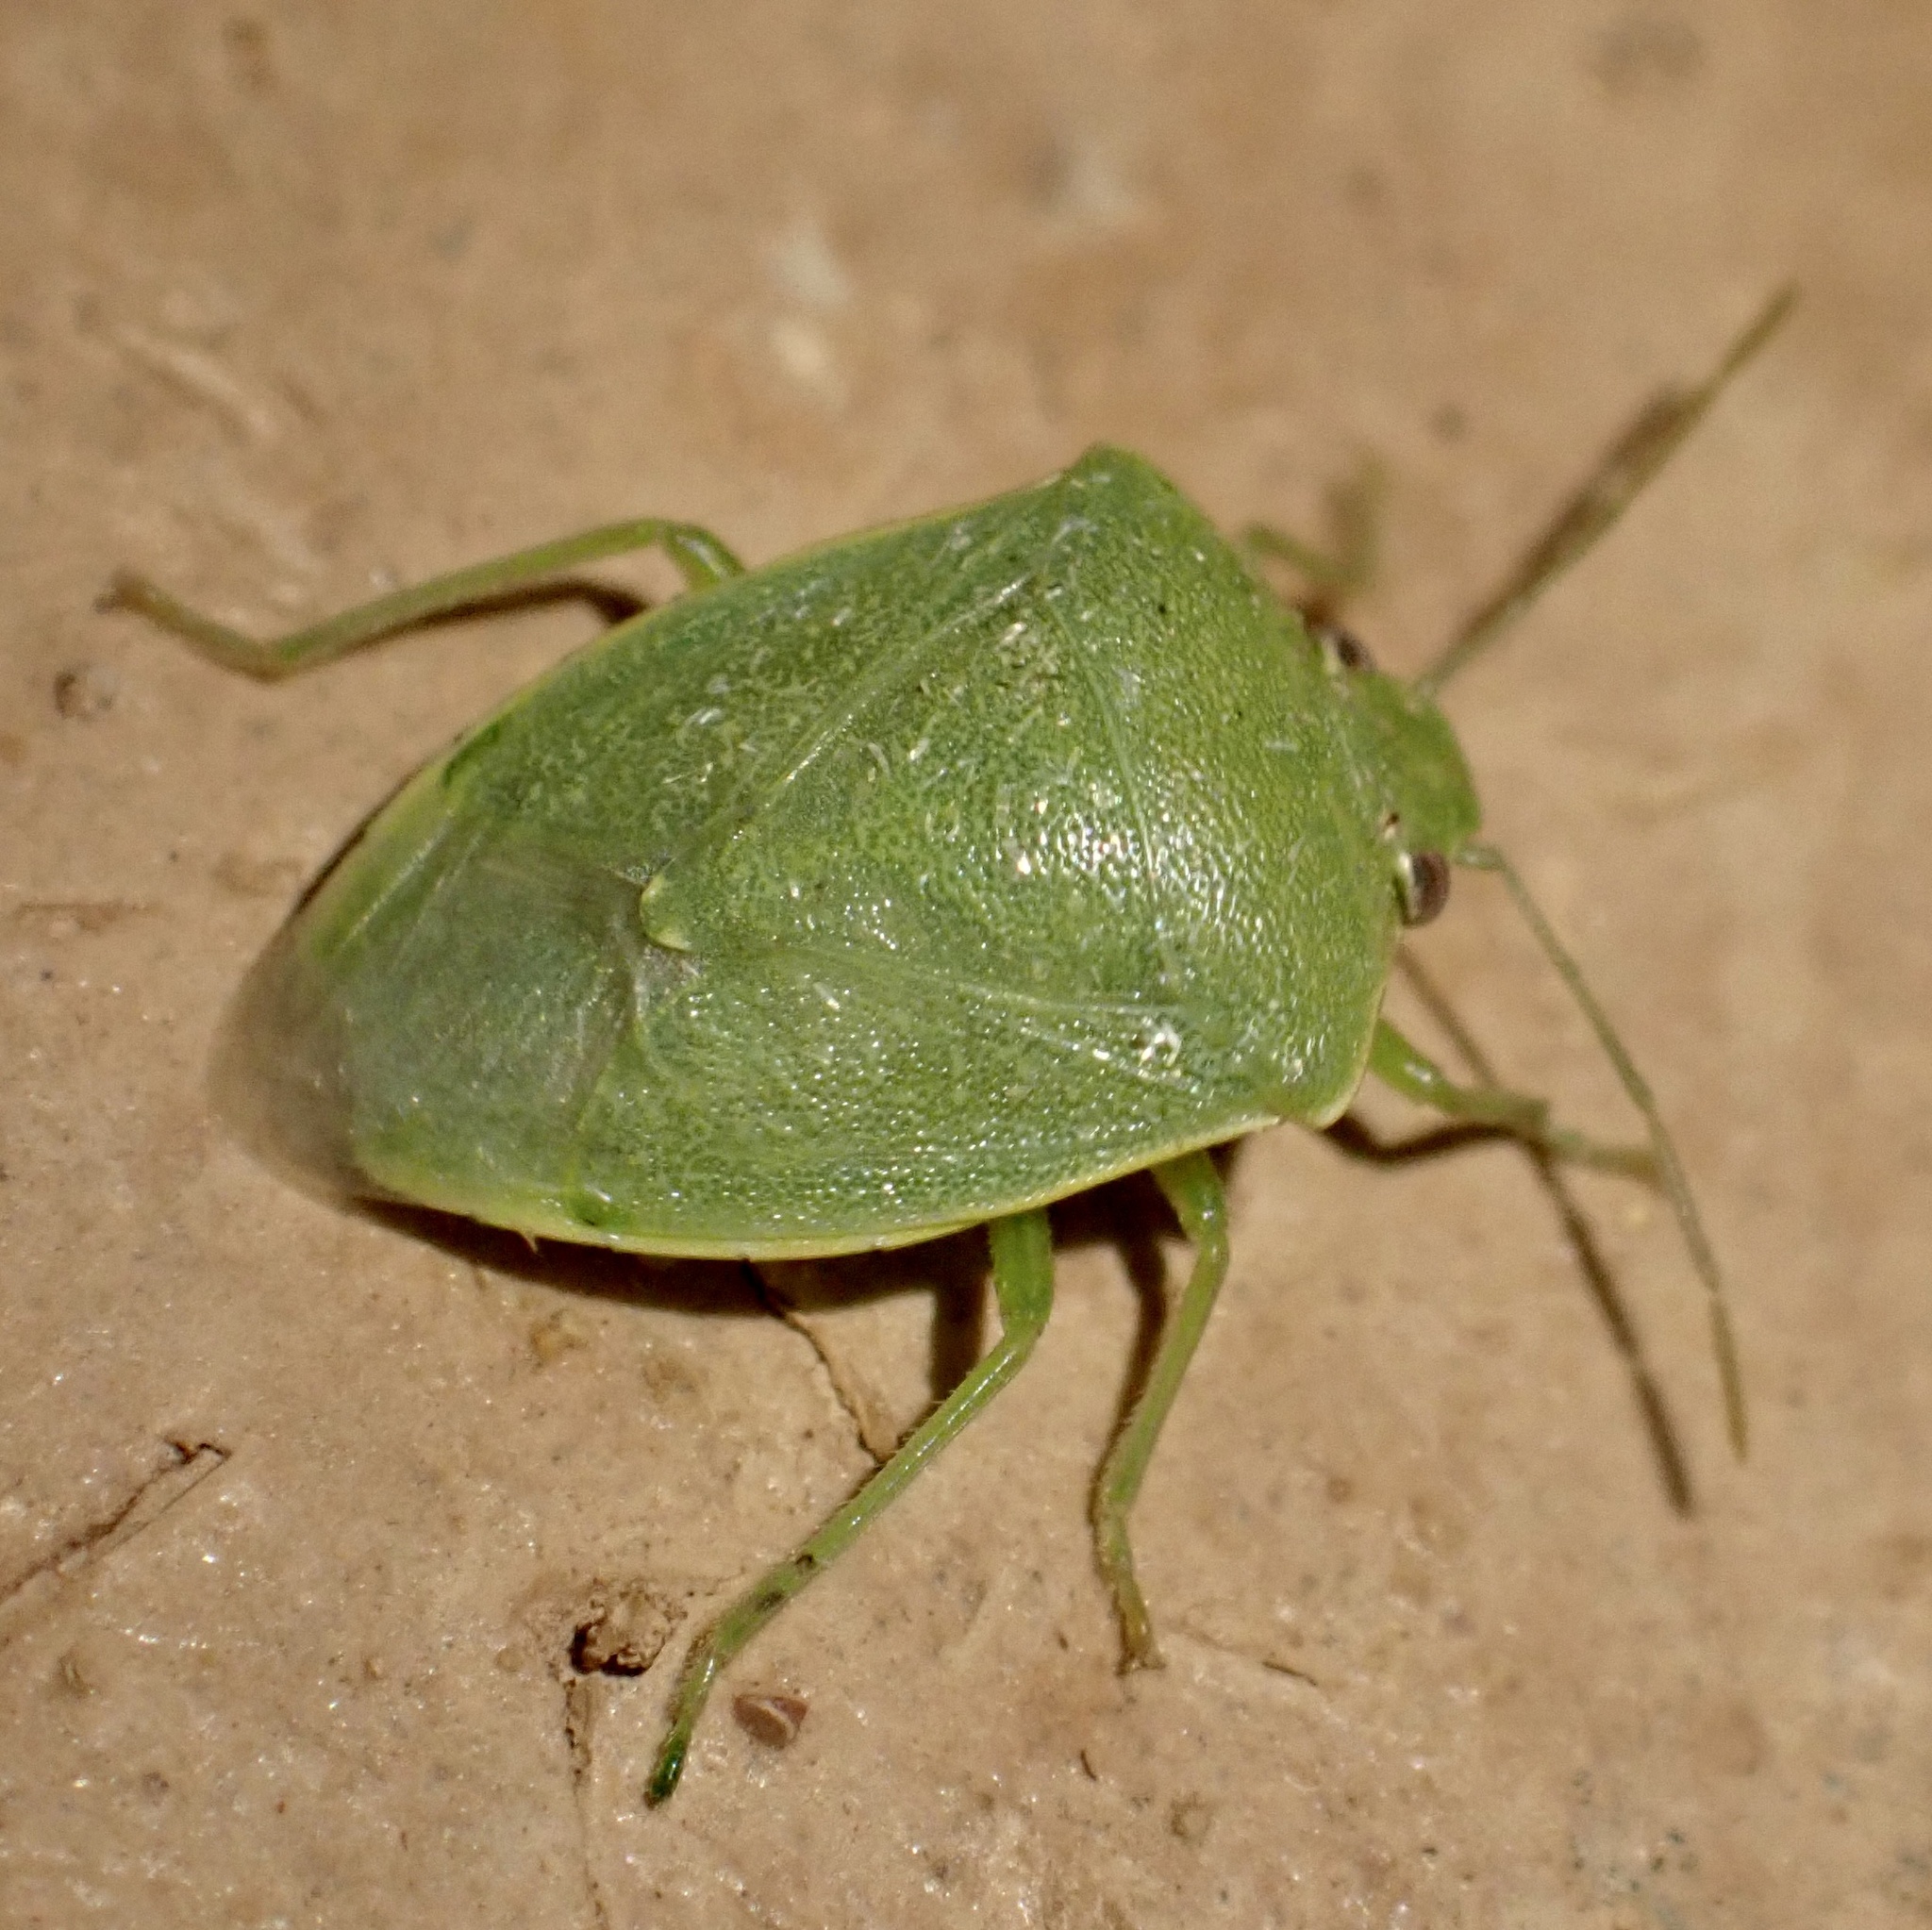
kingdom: Animalia
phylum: Arthropoda
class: Insecta
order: Hemiptera
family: Pentatomidae
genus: Acrosternum
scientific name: Acrosternum millierei
